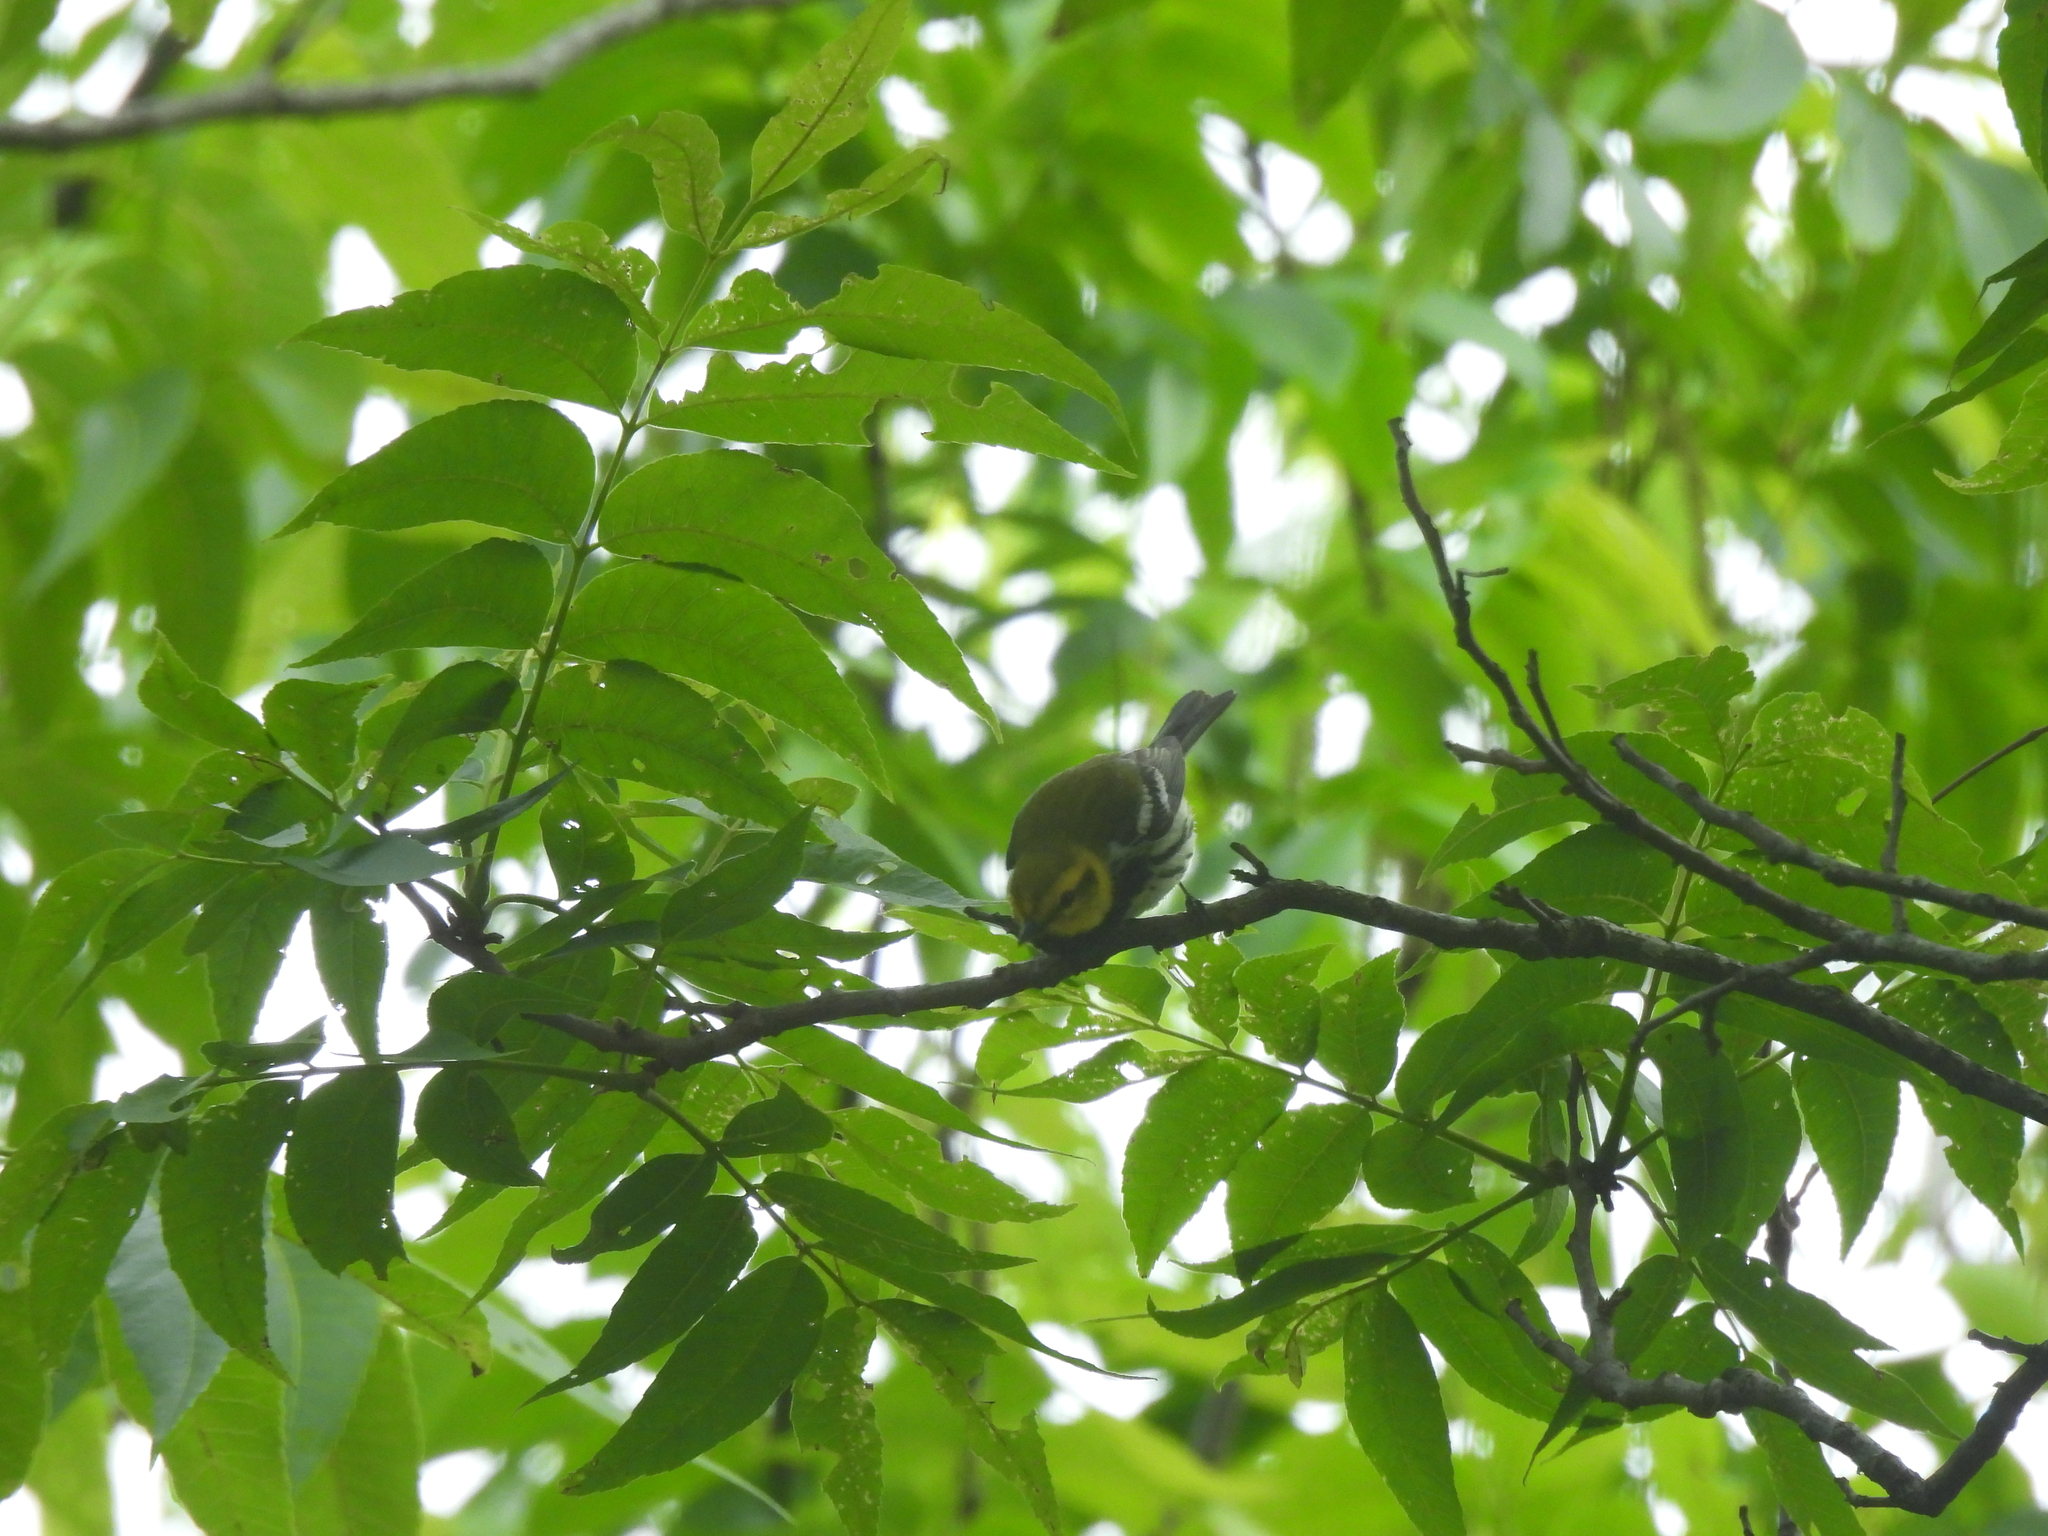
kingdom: Animalia
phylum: Chordata
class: Aves
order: Passeriformes
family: Parulidae
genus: Setophaga
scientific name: Setophaga virens
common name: Black-throated green warbler
